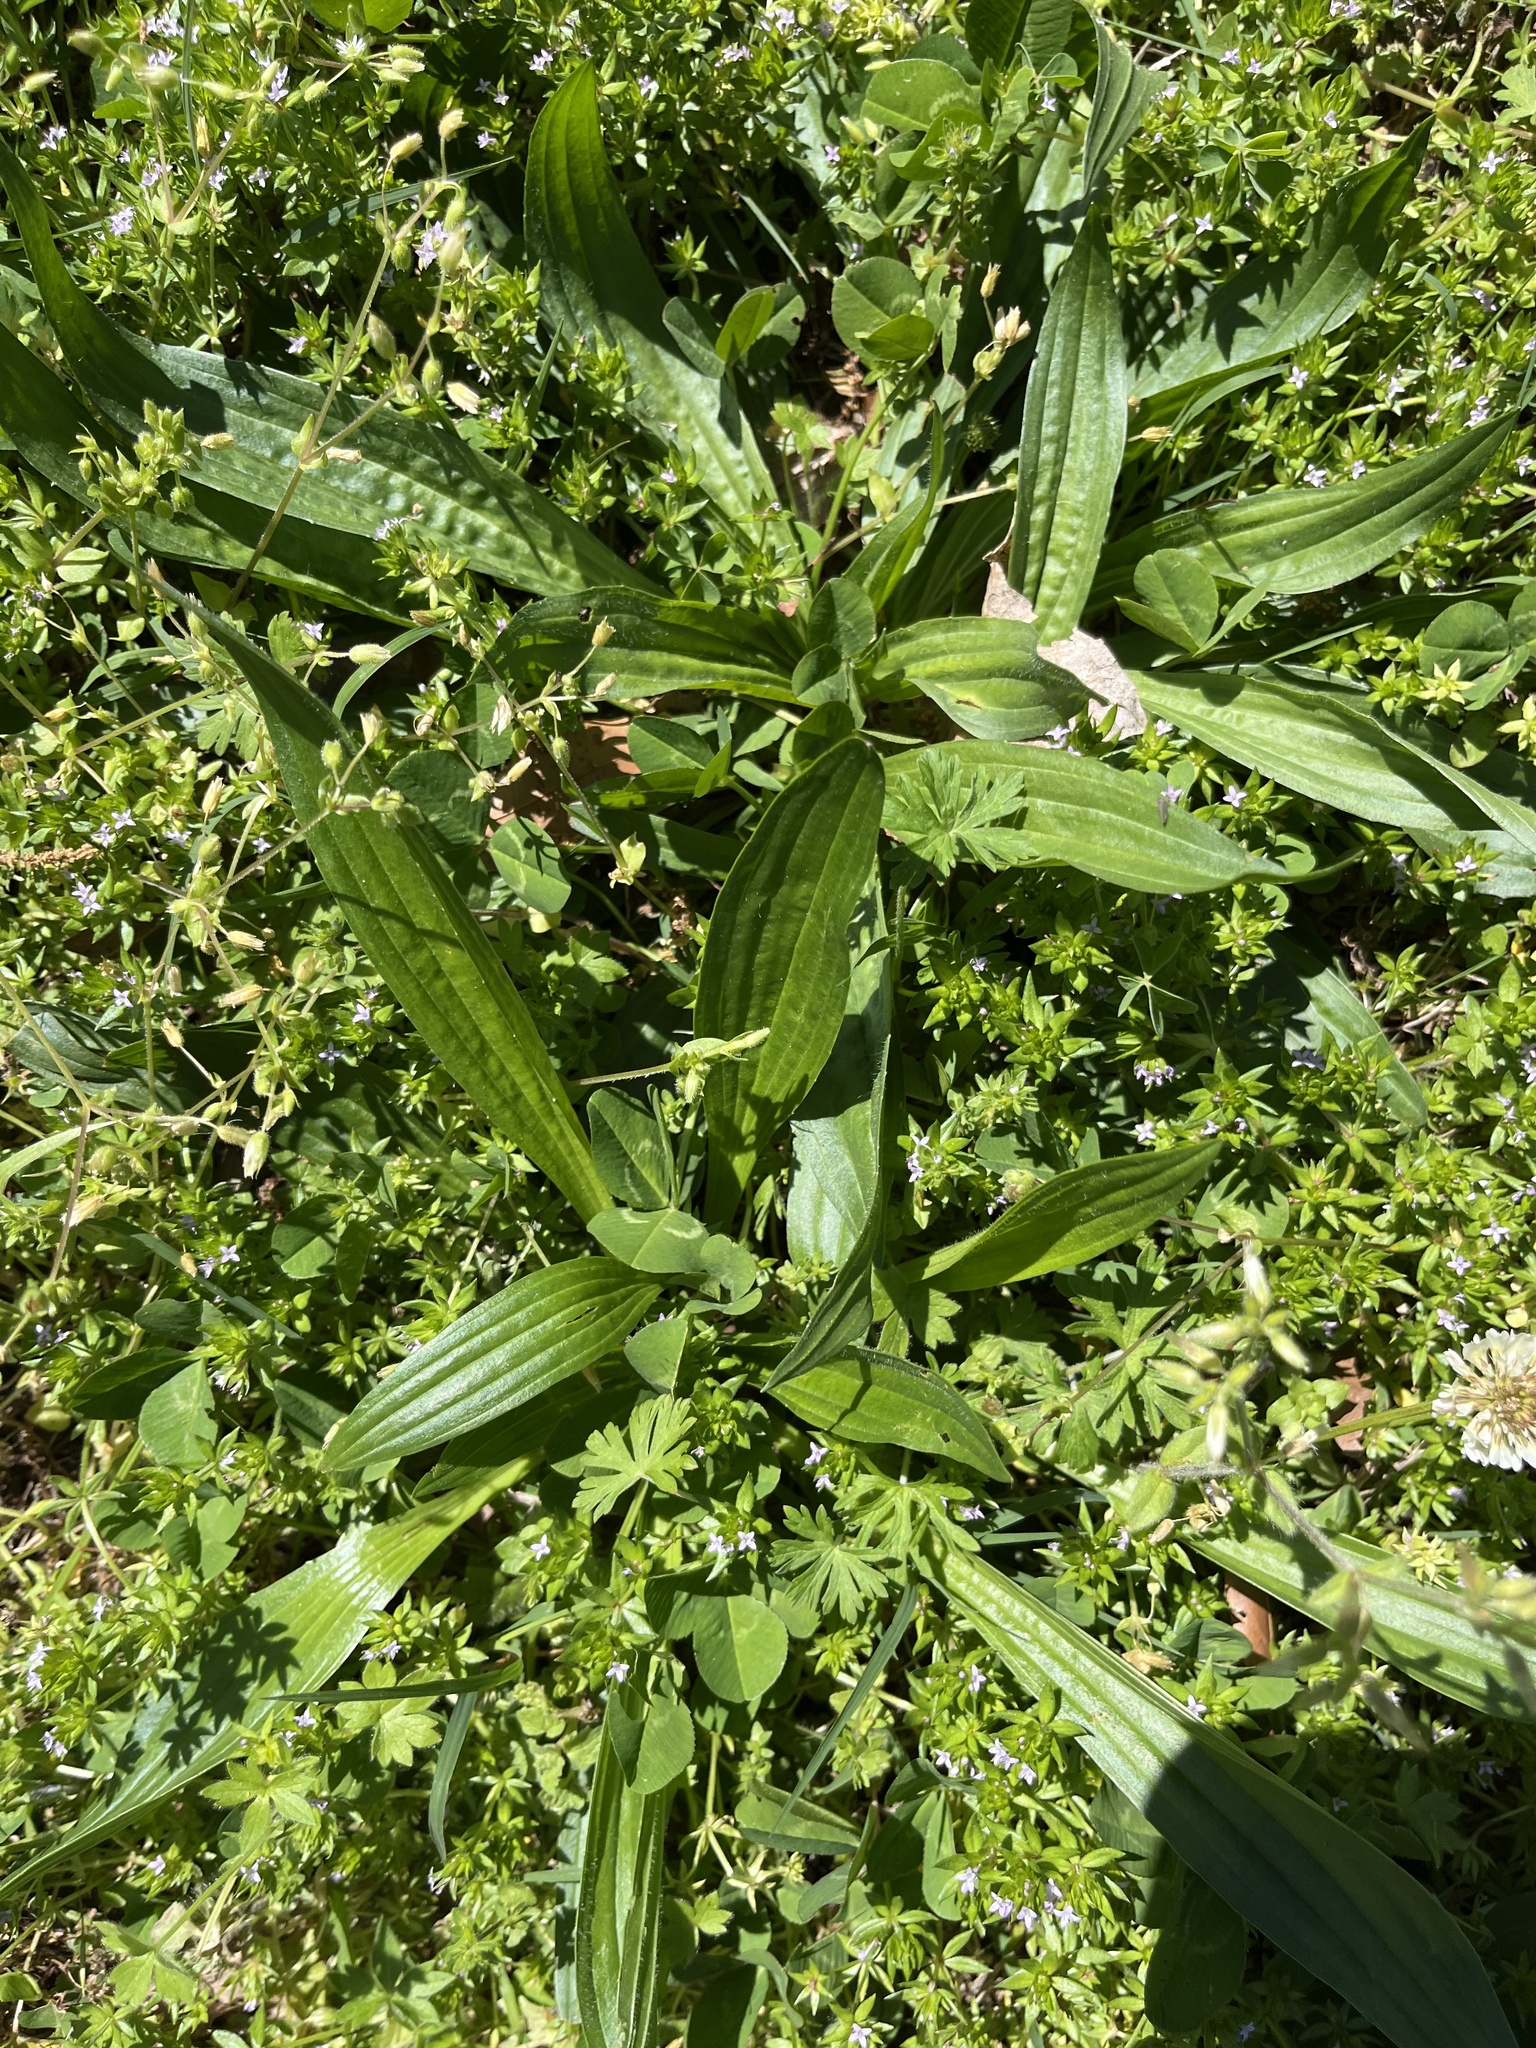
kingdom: Plantae
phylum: Tracheophyta
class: Magnoliopsida
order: Lamiales
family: Plantaginaceae
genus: Plantago
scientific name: Plantago lanceolata
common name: Ribwort plantain
